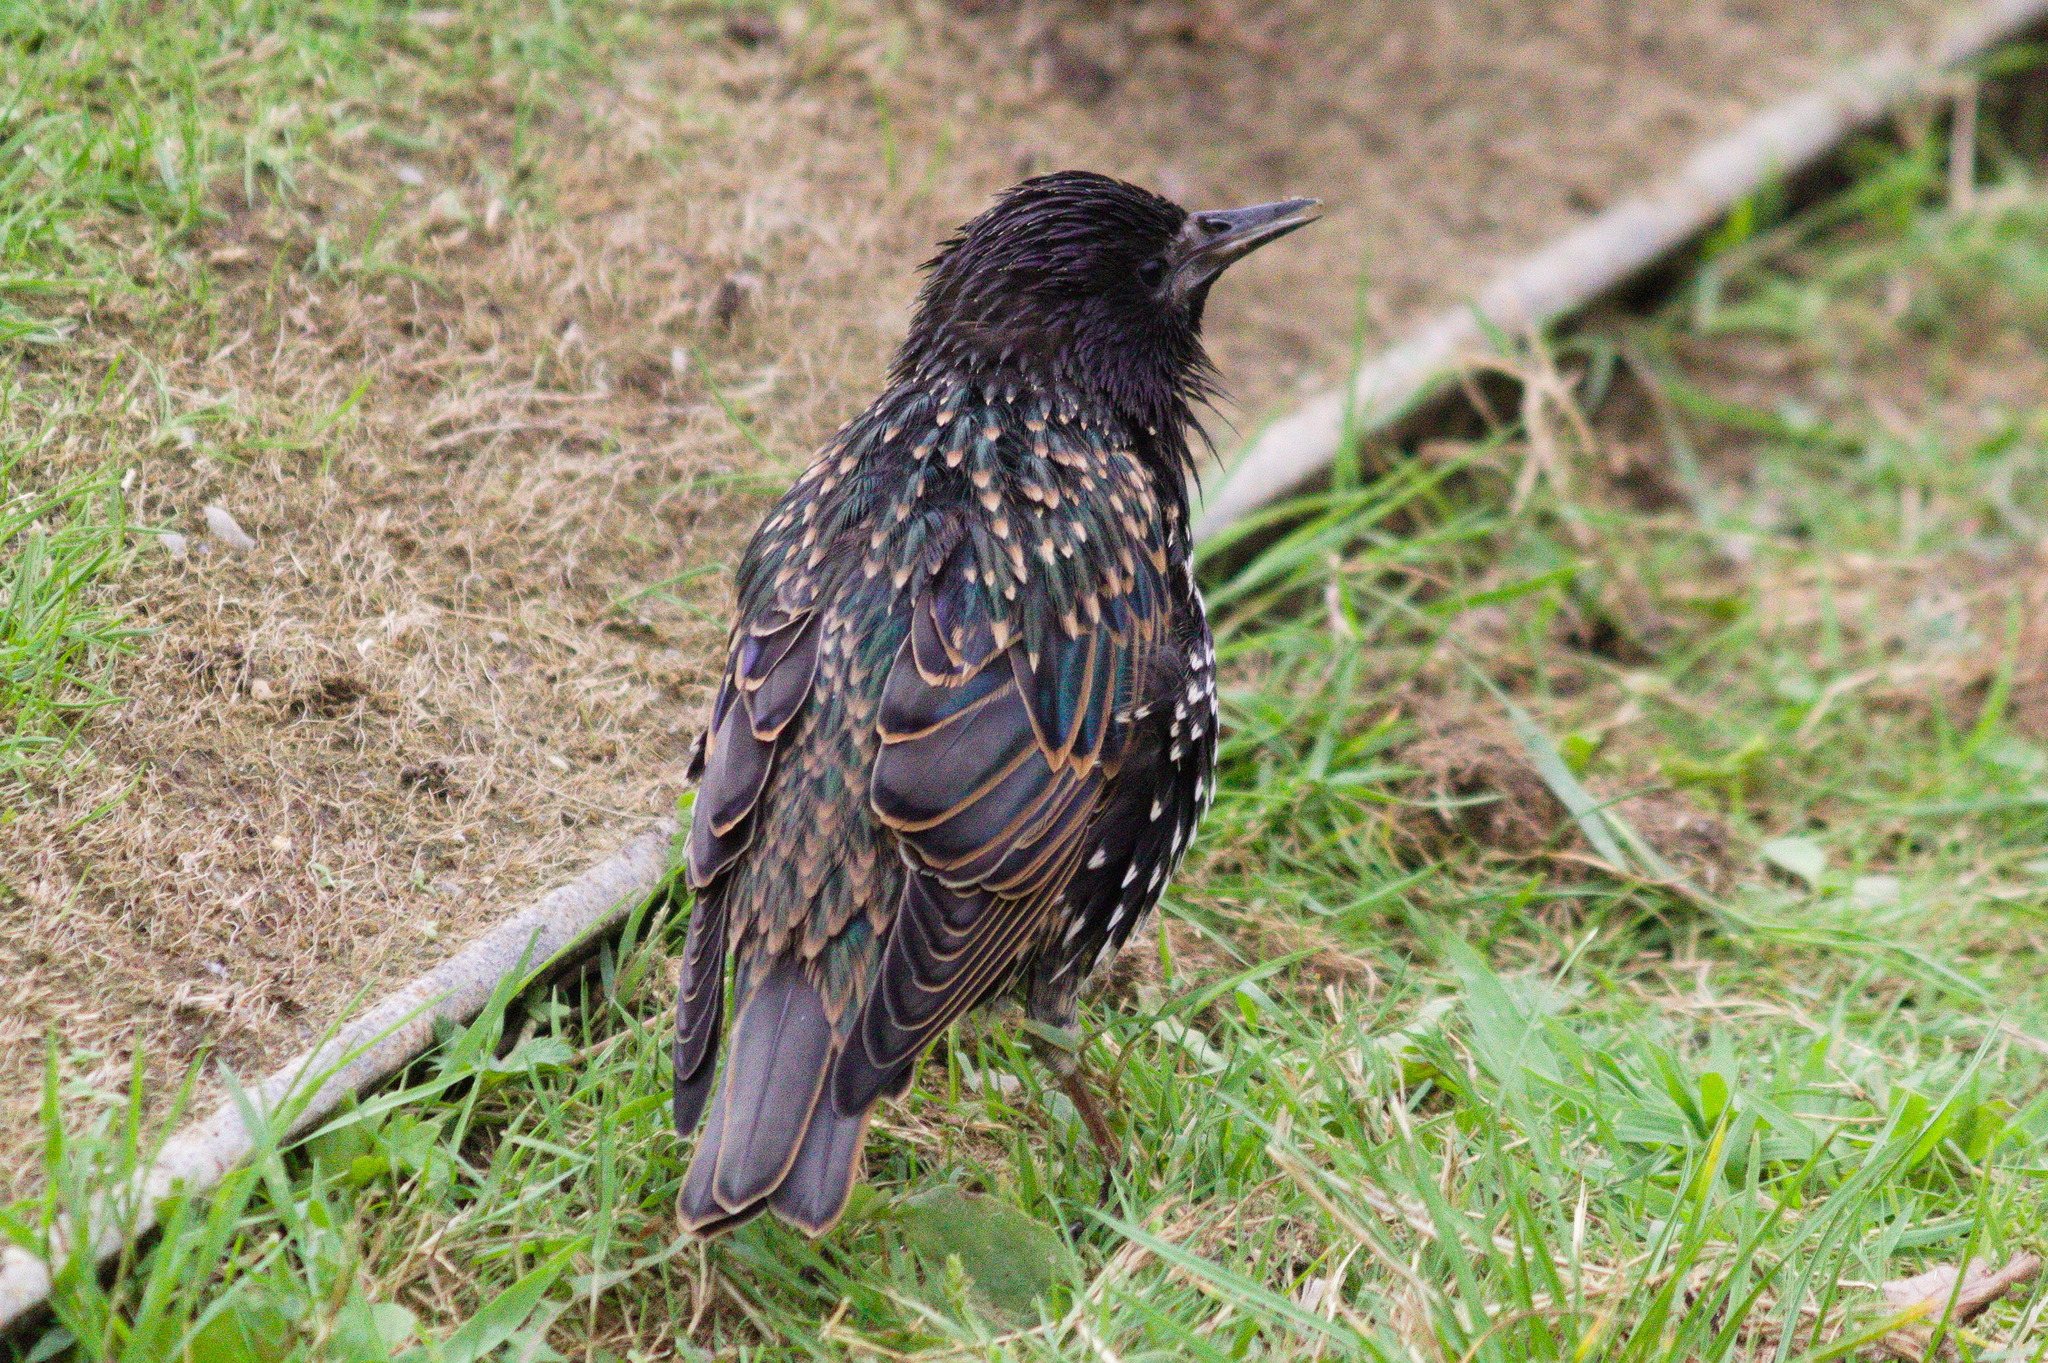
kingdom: Animalia
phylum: Chordata
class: Aves
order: Passeriformes
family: Sturnidae
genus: Sturnus
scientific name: Sturnus vulgaris
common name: Common starling
